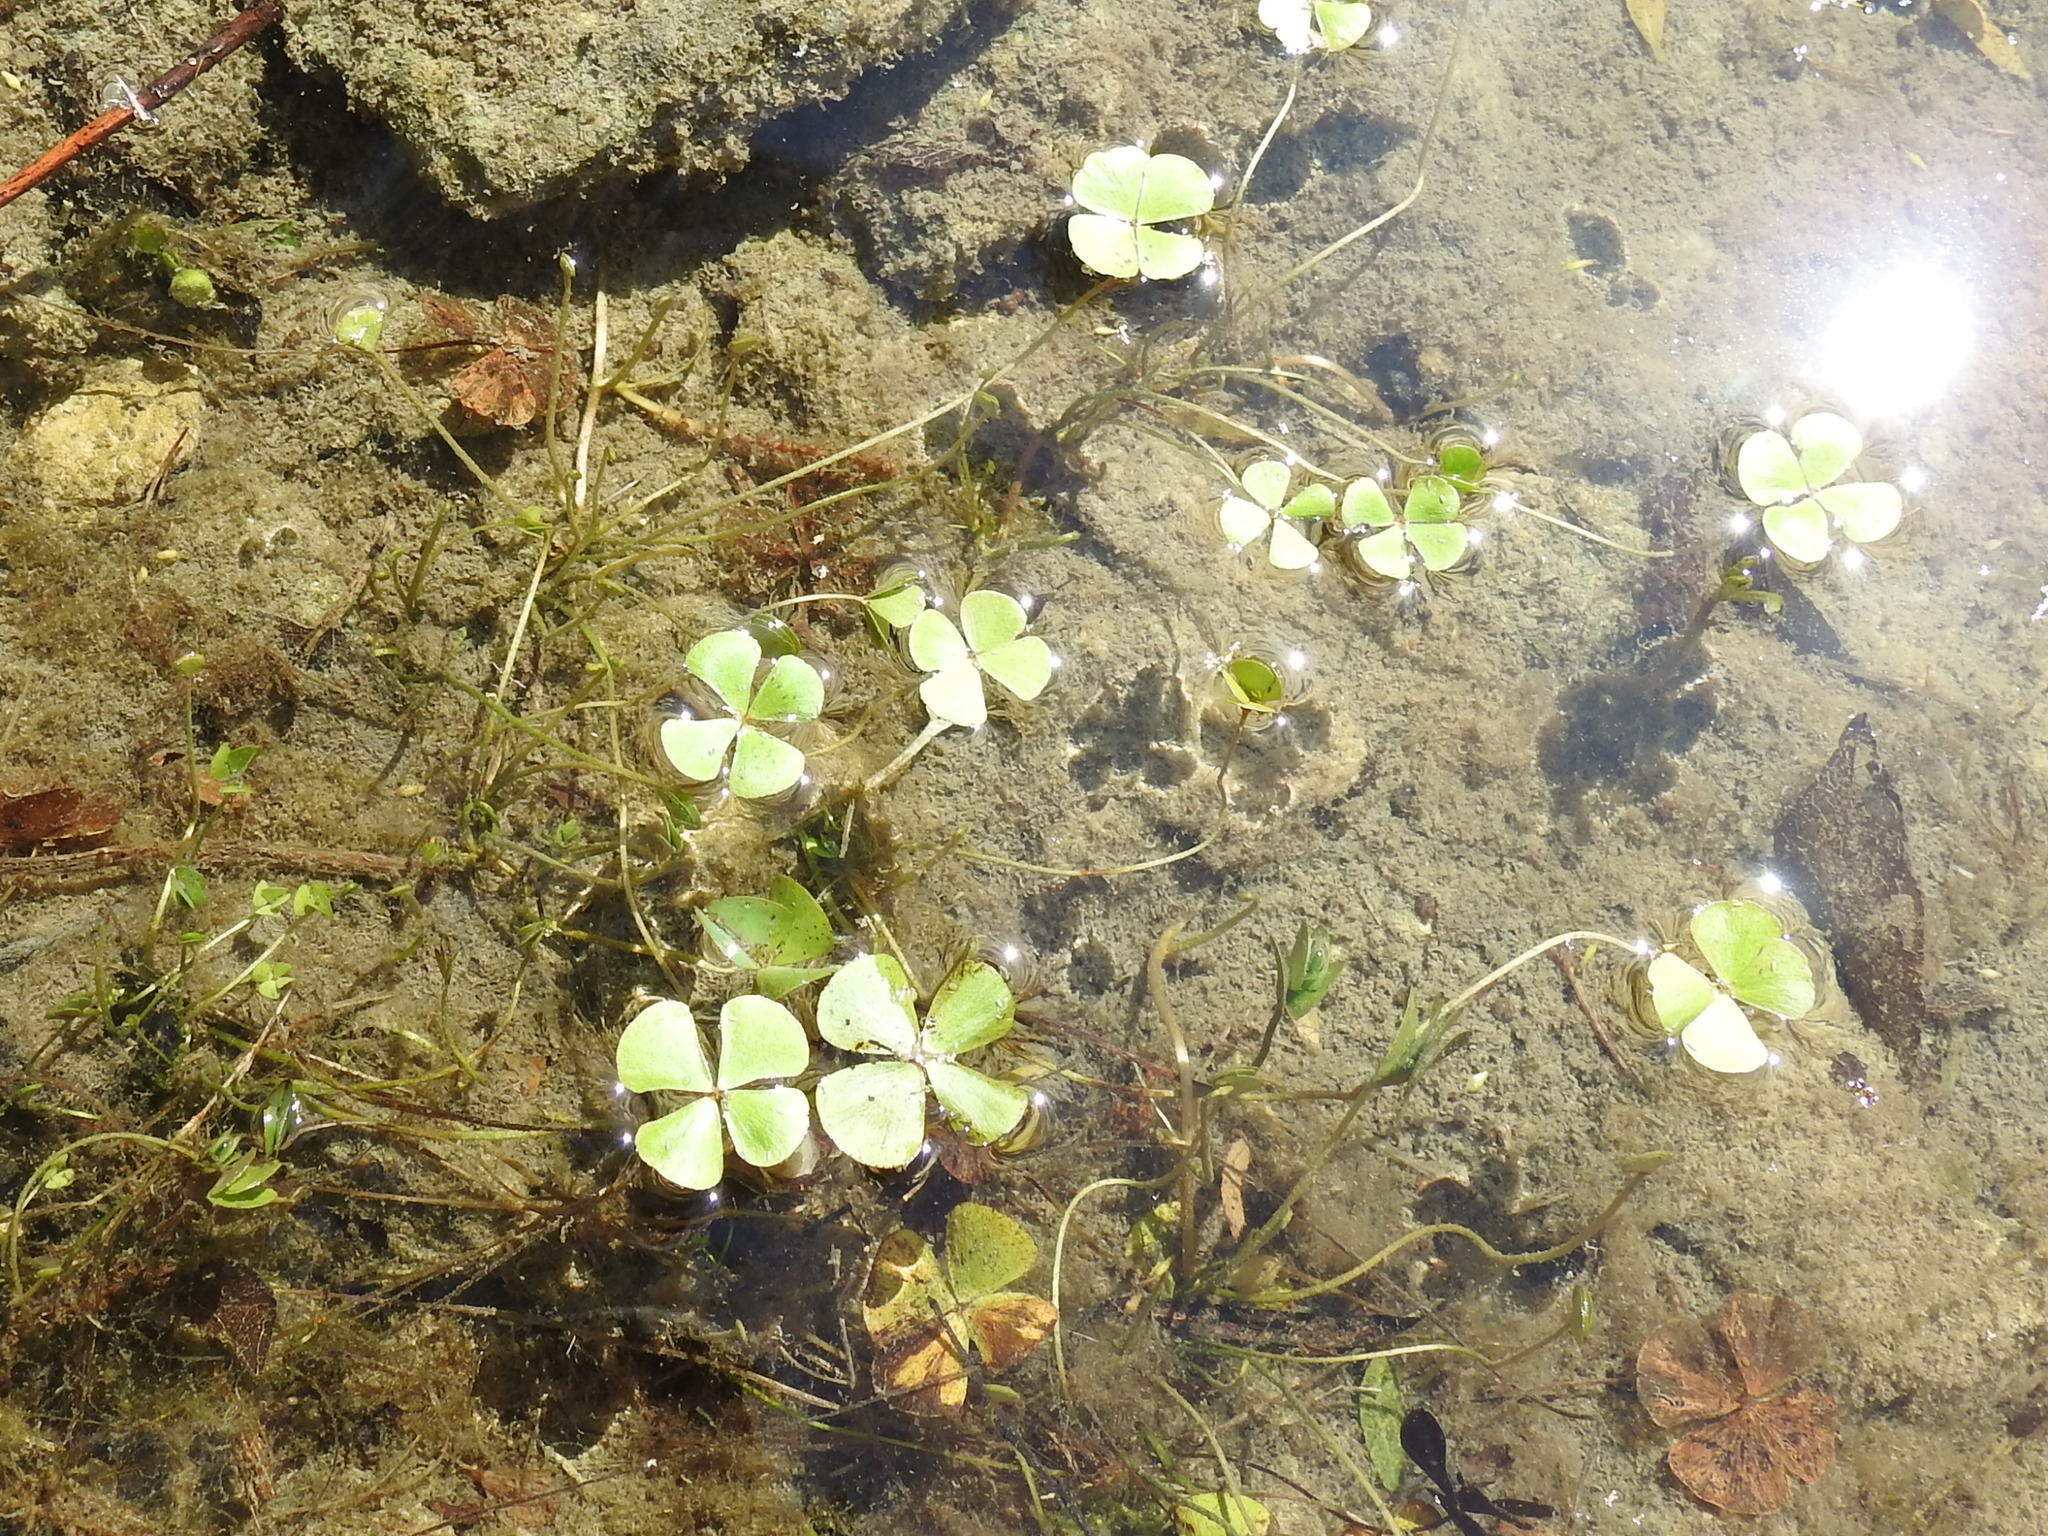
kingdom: Plantae
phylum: Tracheophyta
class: Polypodiopsida
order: Salviniales
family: Marsileaceae
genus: Marsilea
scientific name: Marsilea vestita
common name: Hooked-pepperwort
